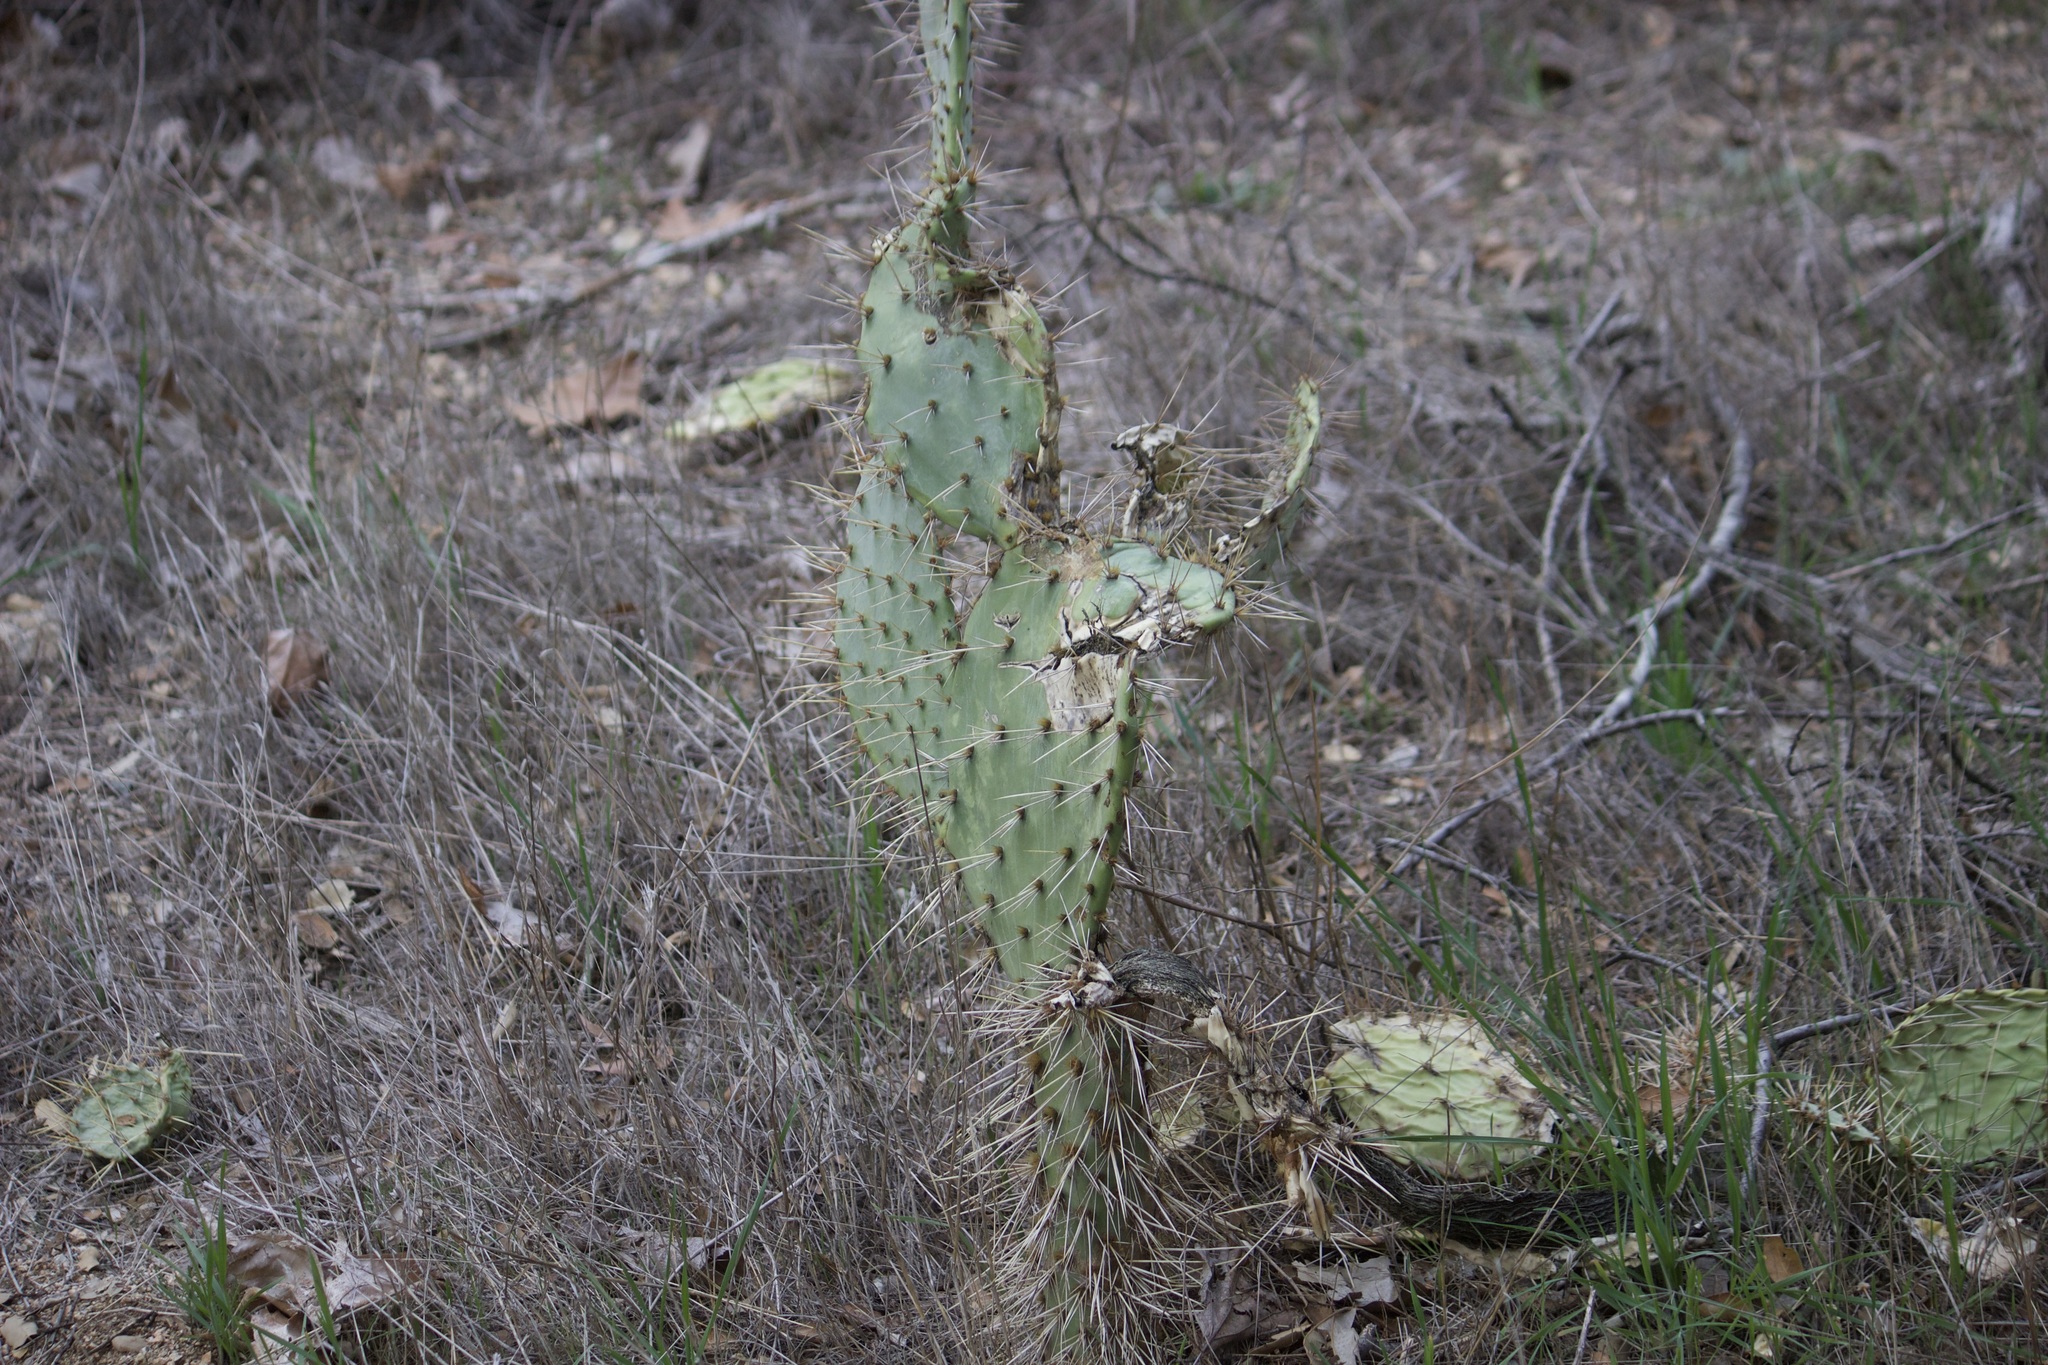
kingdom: Plantae
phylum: Tracheophyta
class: Magnoliopsida
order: Caryophyllales
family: Cactaceae
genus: Opuntia
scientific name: Opuntia littoralis
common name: Coastal prickly-pear
